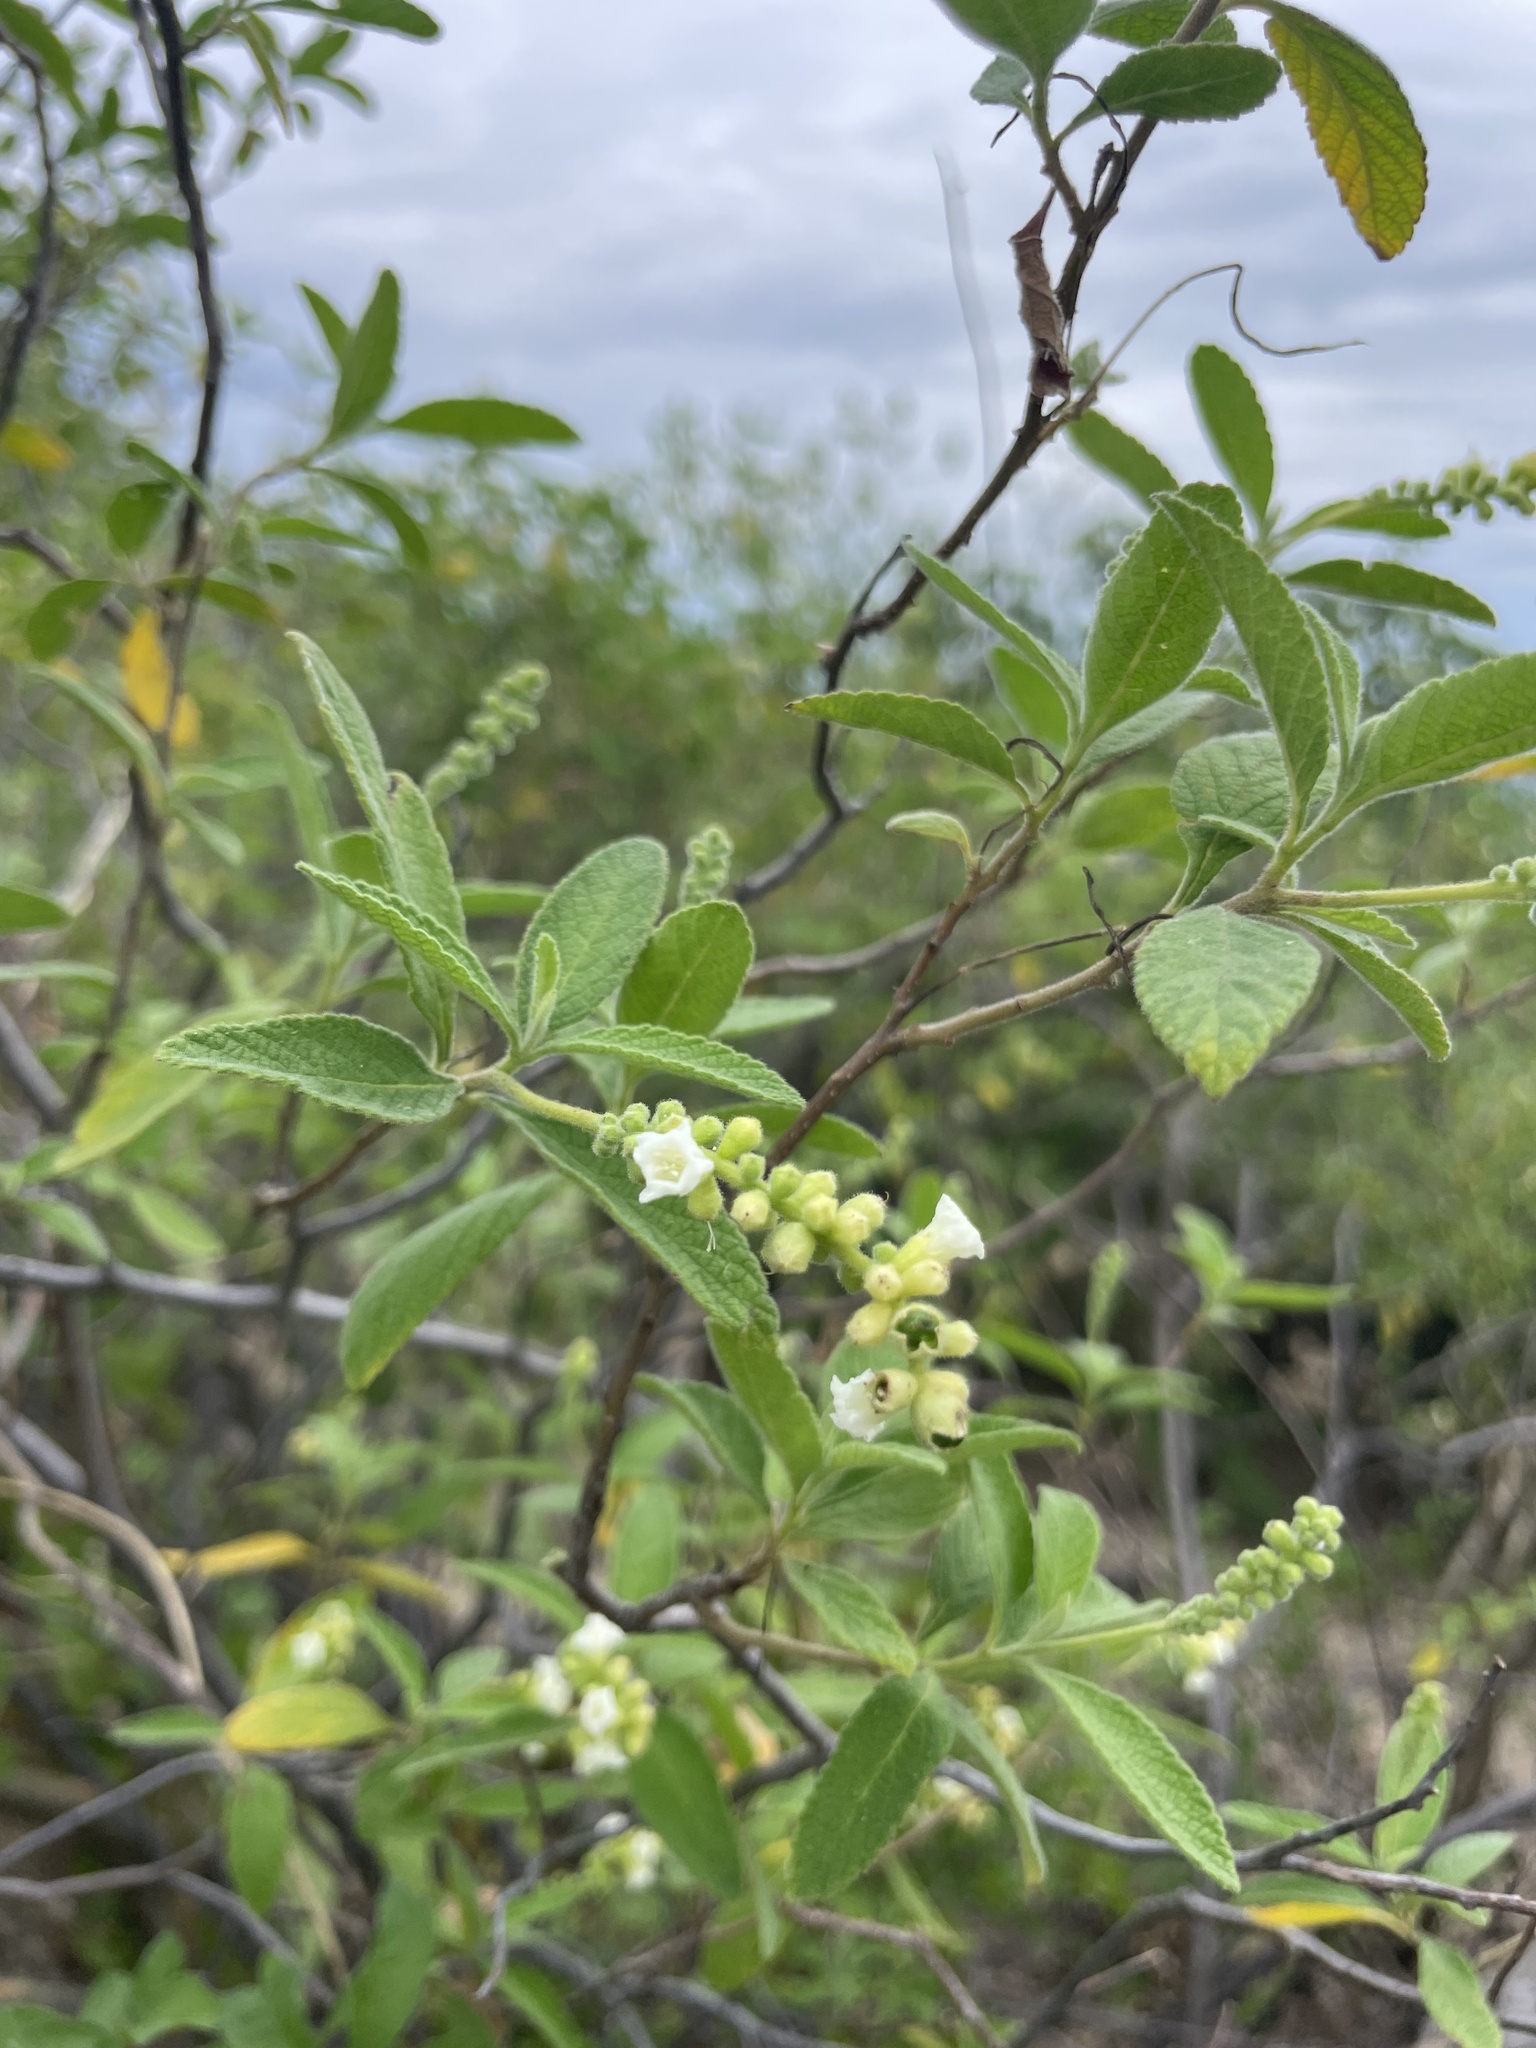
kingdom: Plantae
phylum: Tracheophyta
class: Magnoliopsida
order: Boraginales
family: Cordiaceae
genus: Varronia
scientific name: Varronia curassavica
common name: Black sage
